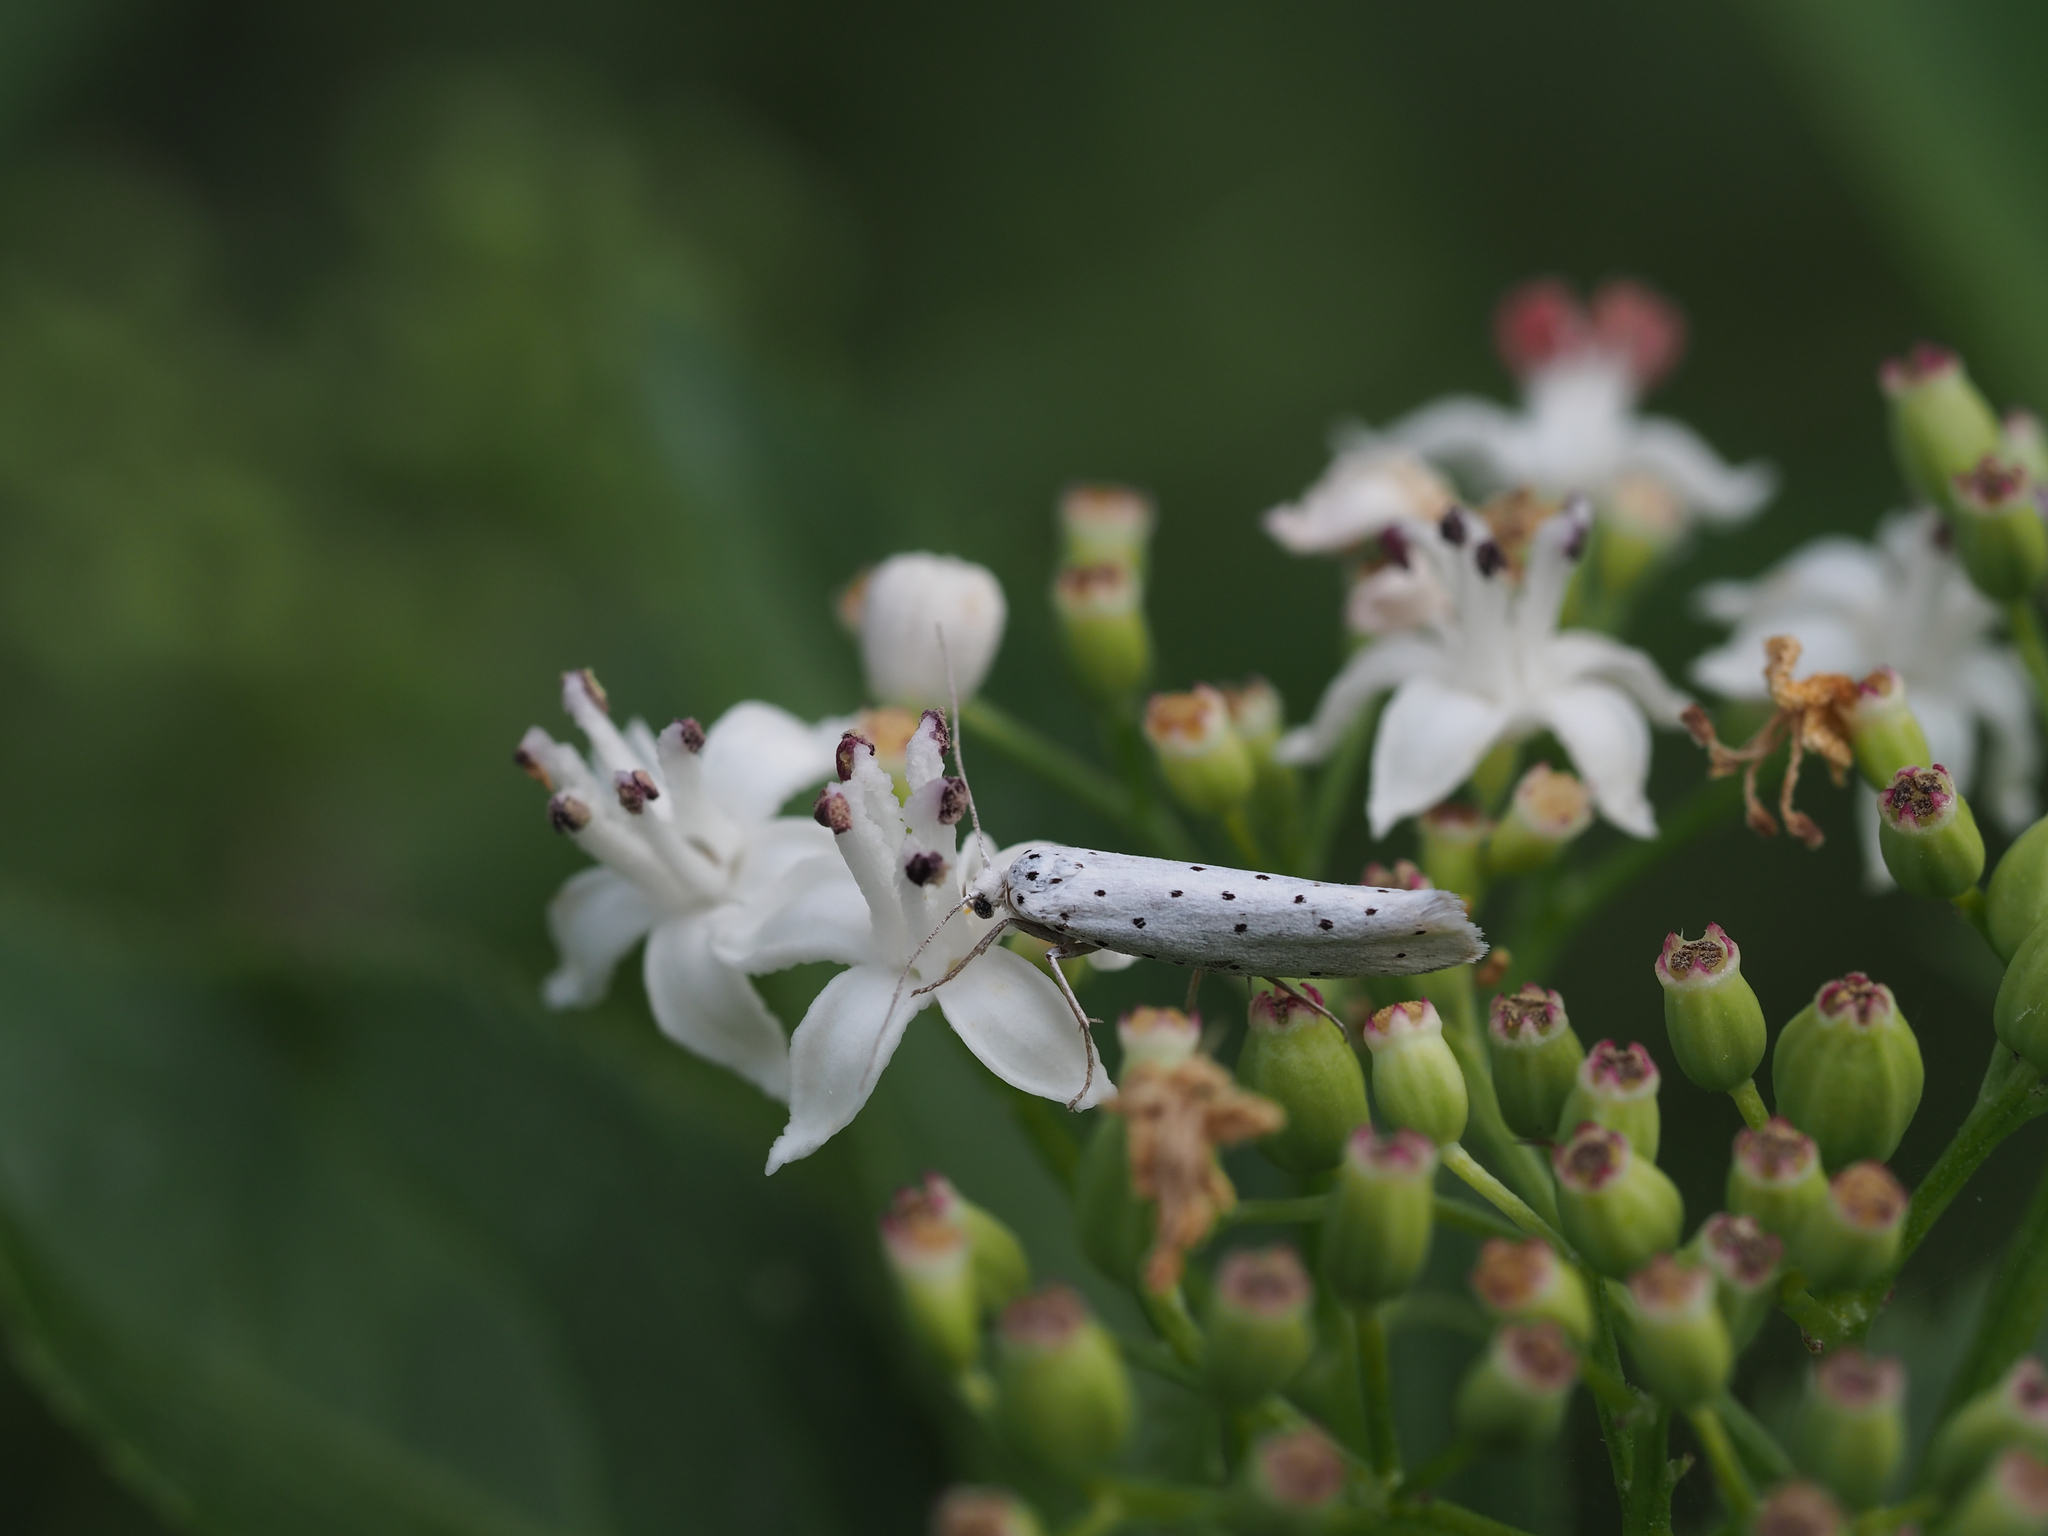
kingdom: Plantae
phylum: Tracheophyta
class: Magnoliopsida
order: Dipsacales
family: Viburnaceae
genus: Sambucus
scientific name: Sambucus ebulus
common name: Dwarf elder
